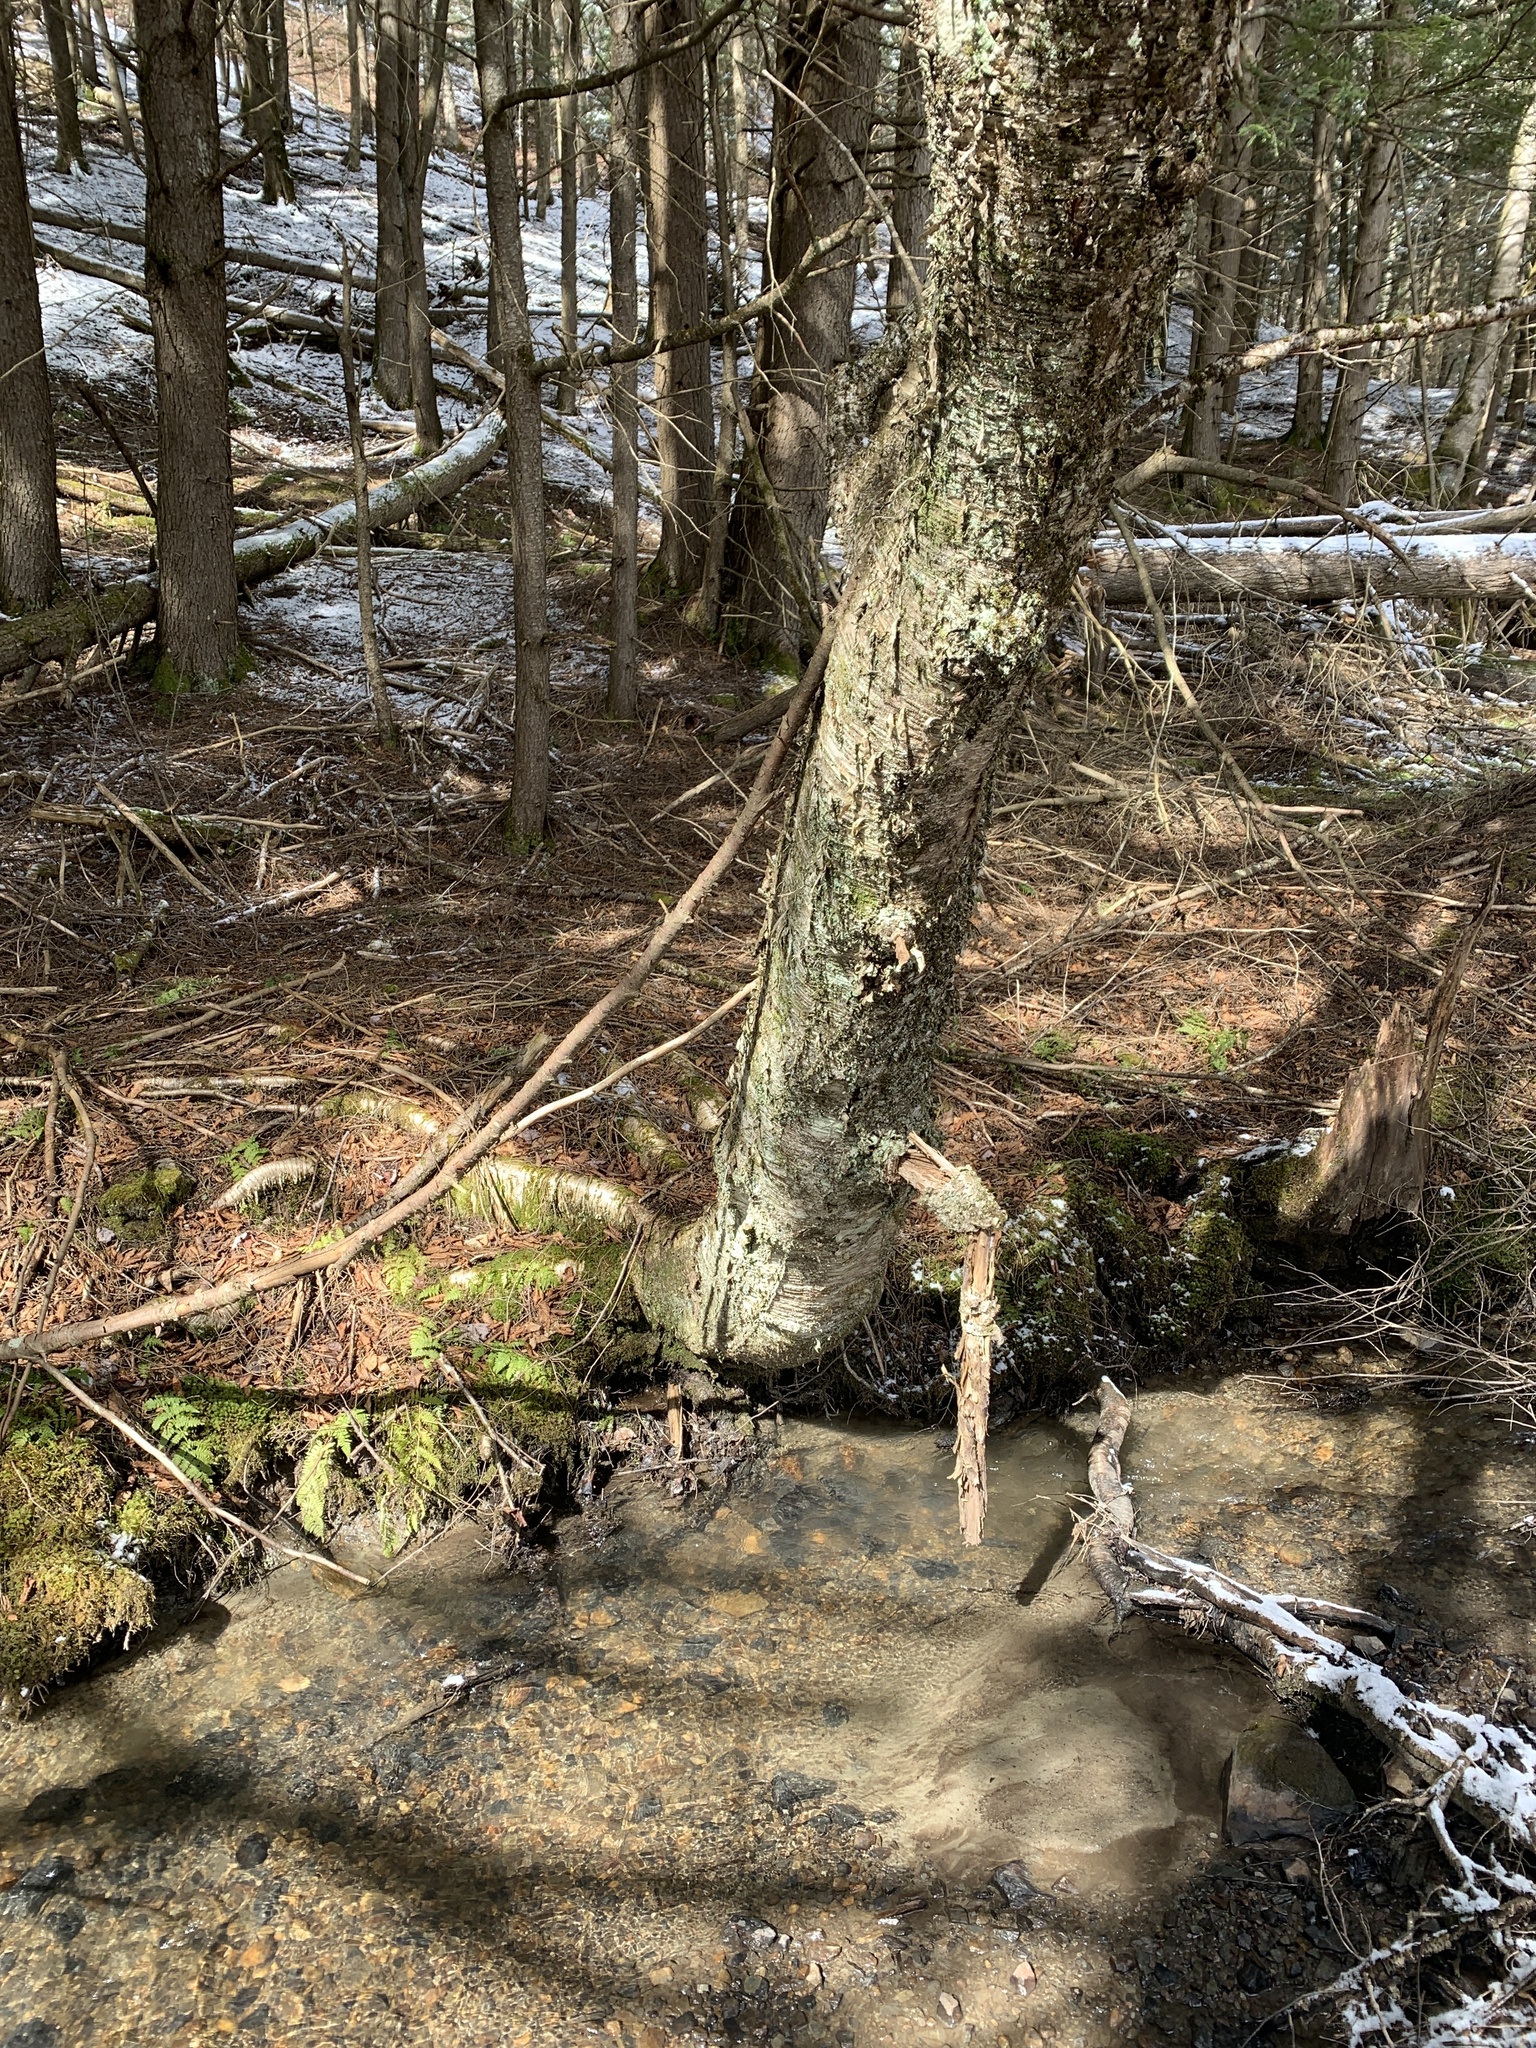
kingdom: Plantae
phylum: Tracheophyta
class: Magnoliopsida
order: Fagales
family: Betulaceae
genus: Betula
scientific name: Betula alleghaniensis
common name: Yellow birch
